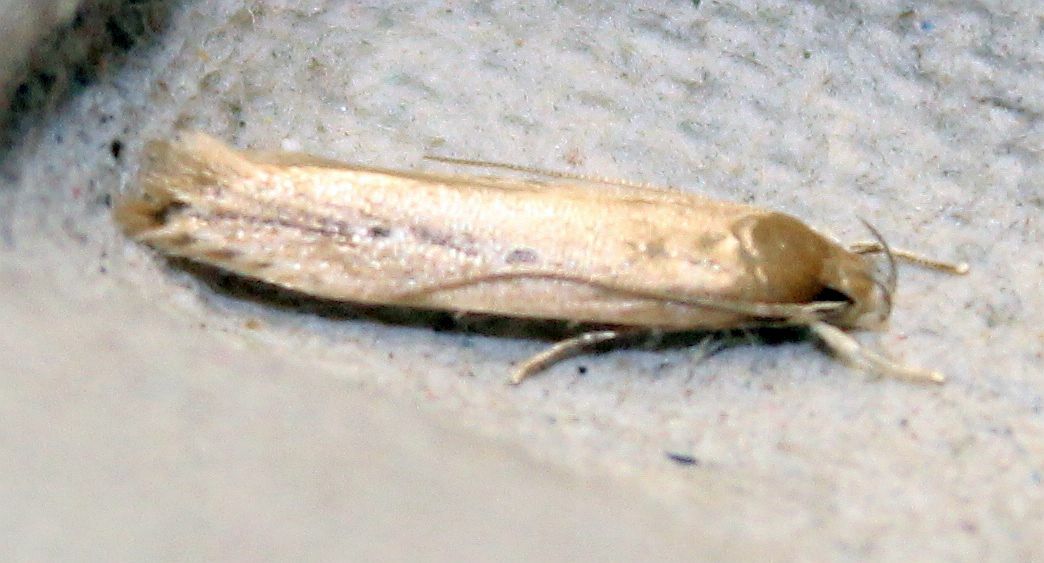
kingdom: Animalia
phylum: Arthropoda
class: Insecta
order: Lepidoptera
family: Cosmopterigidae
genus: Limnaecia
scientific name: Limnaecia phragmitella
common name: Bulrush cosmet
